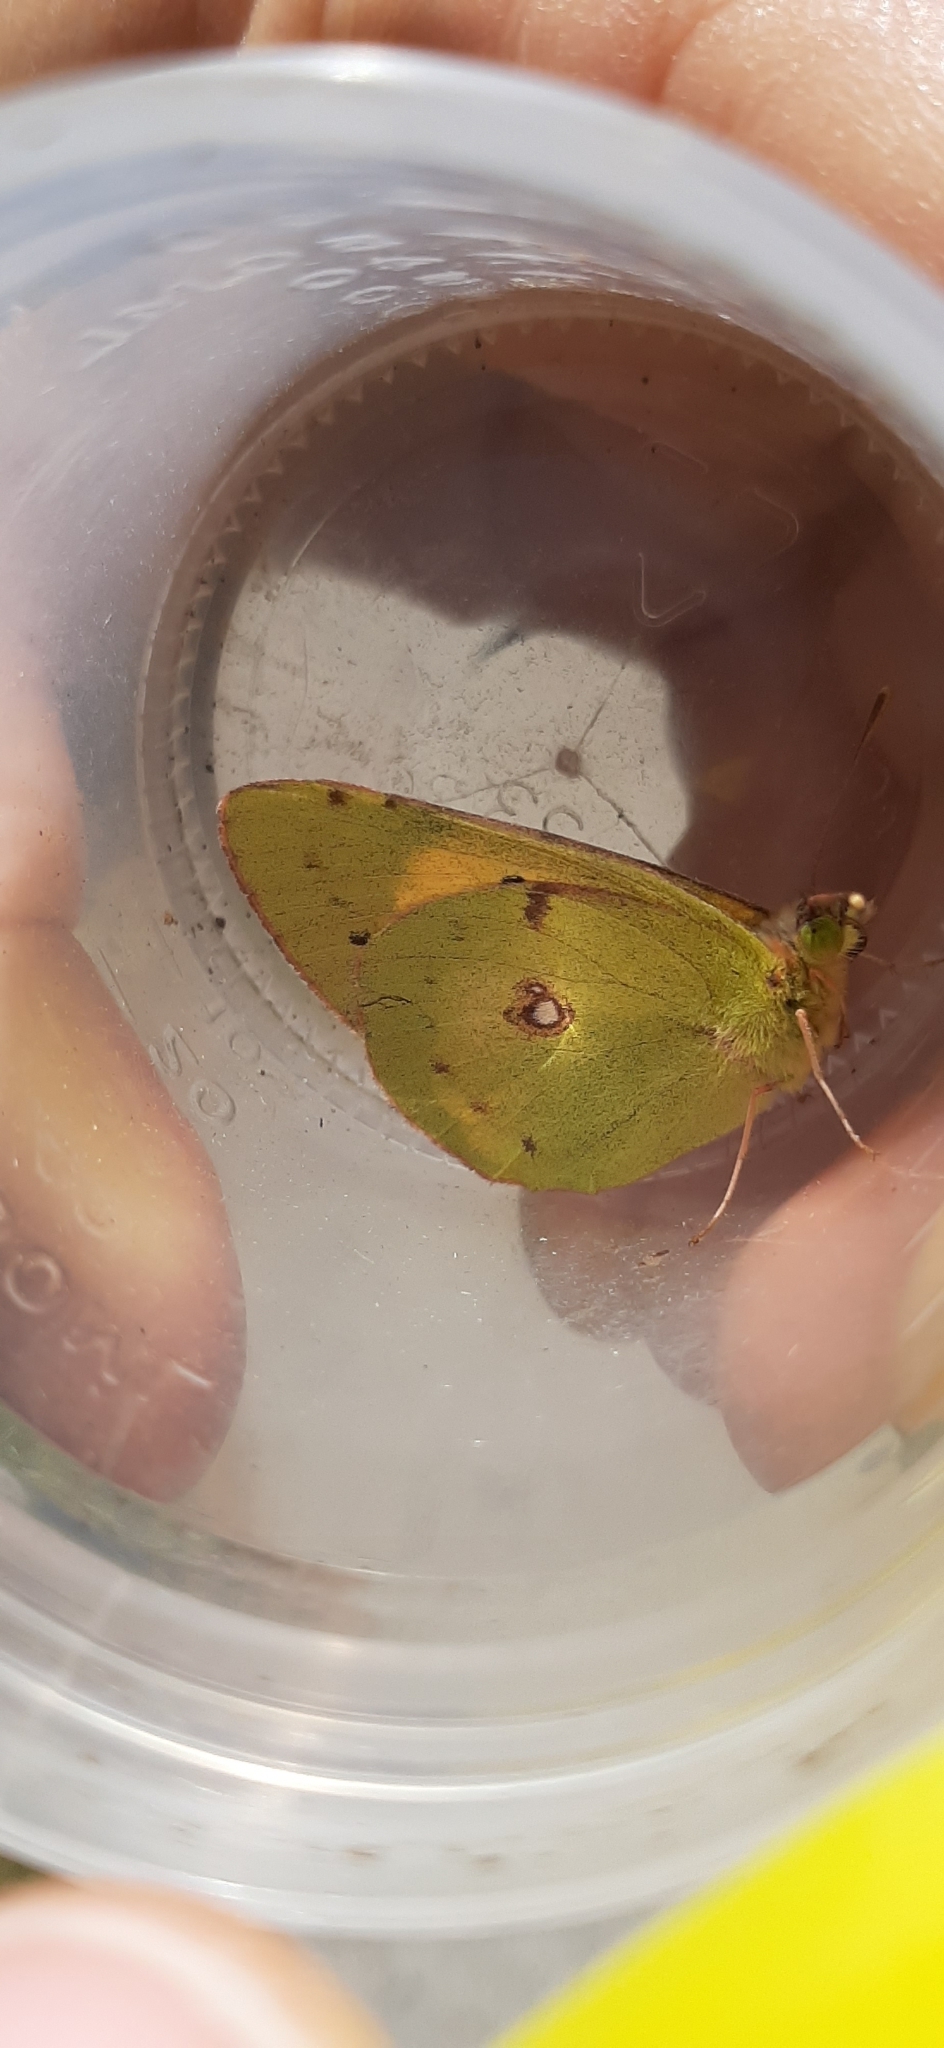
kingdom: Animalia
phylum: Arthropoda
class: Insecta
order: Lepidoptera
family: Pieridae
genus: Colias
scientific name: Colias croceus
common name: Clouded yellow
